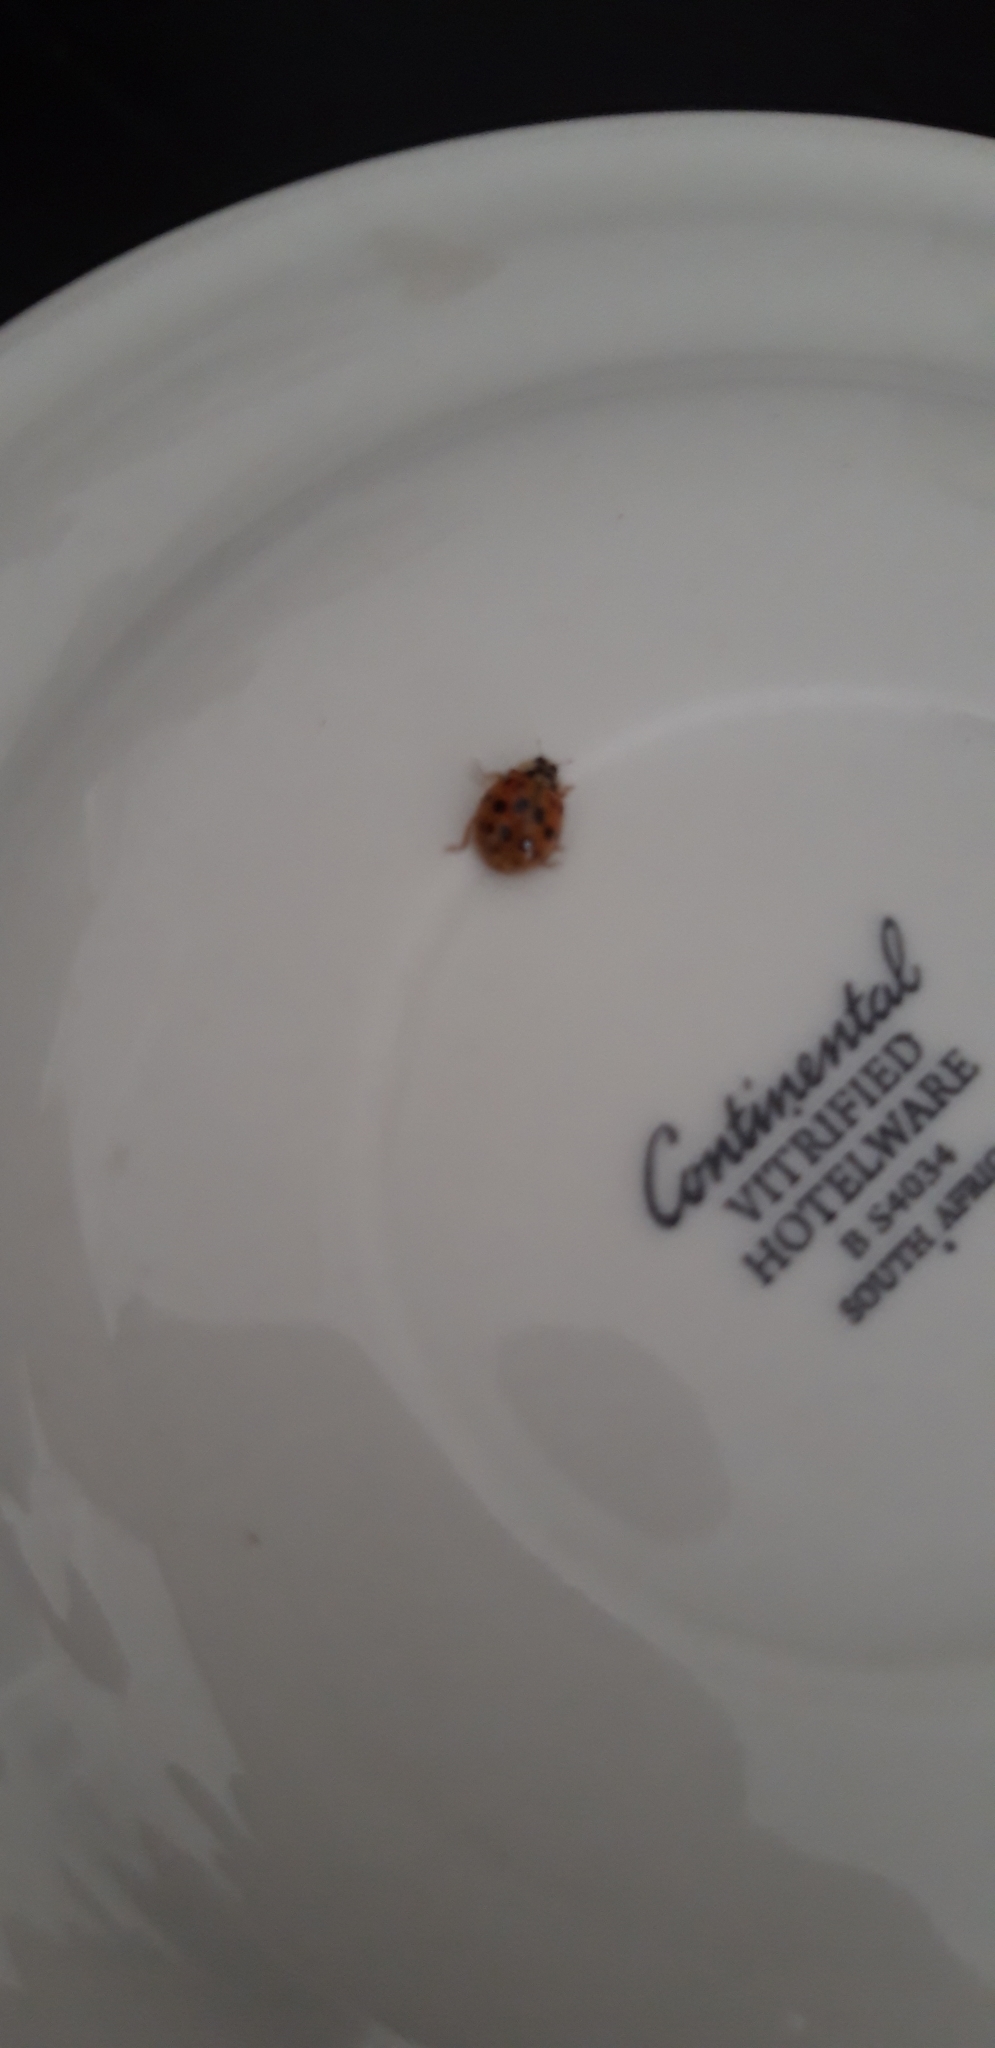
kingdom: Animalia
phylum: Arthropoda
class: Insecta
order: Coleoptera
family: Coccinellidae
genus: Harmonia
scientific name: Harmonia axyridis
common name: Harlequin ladybird
